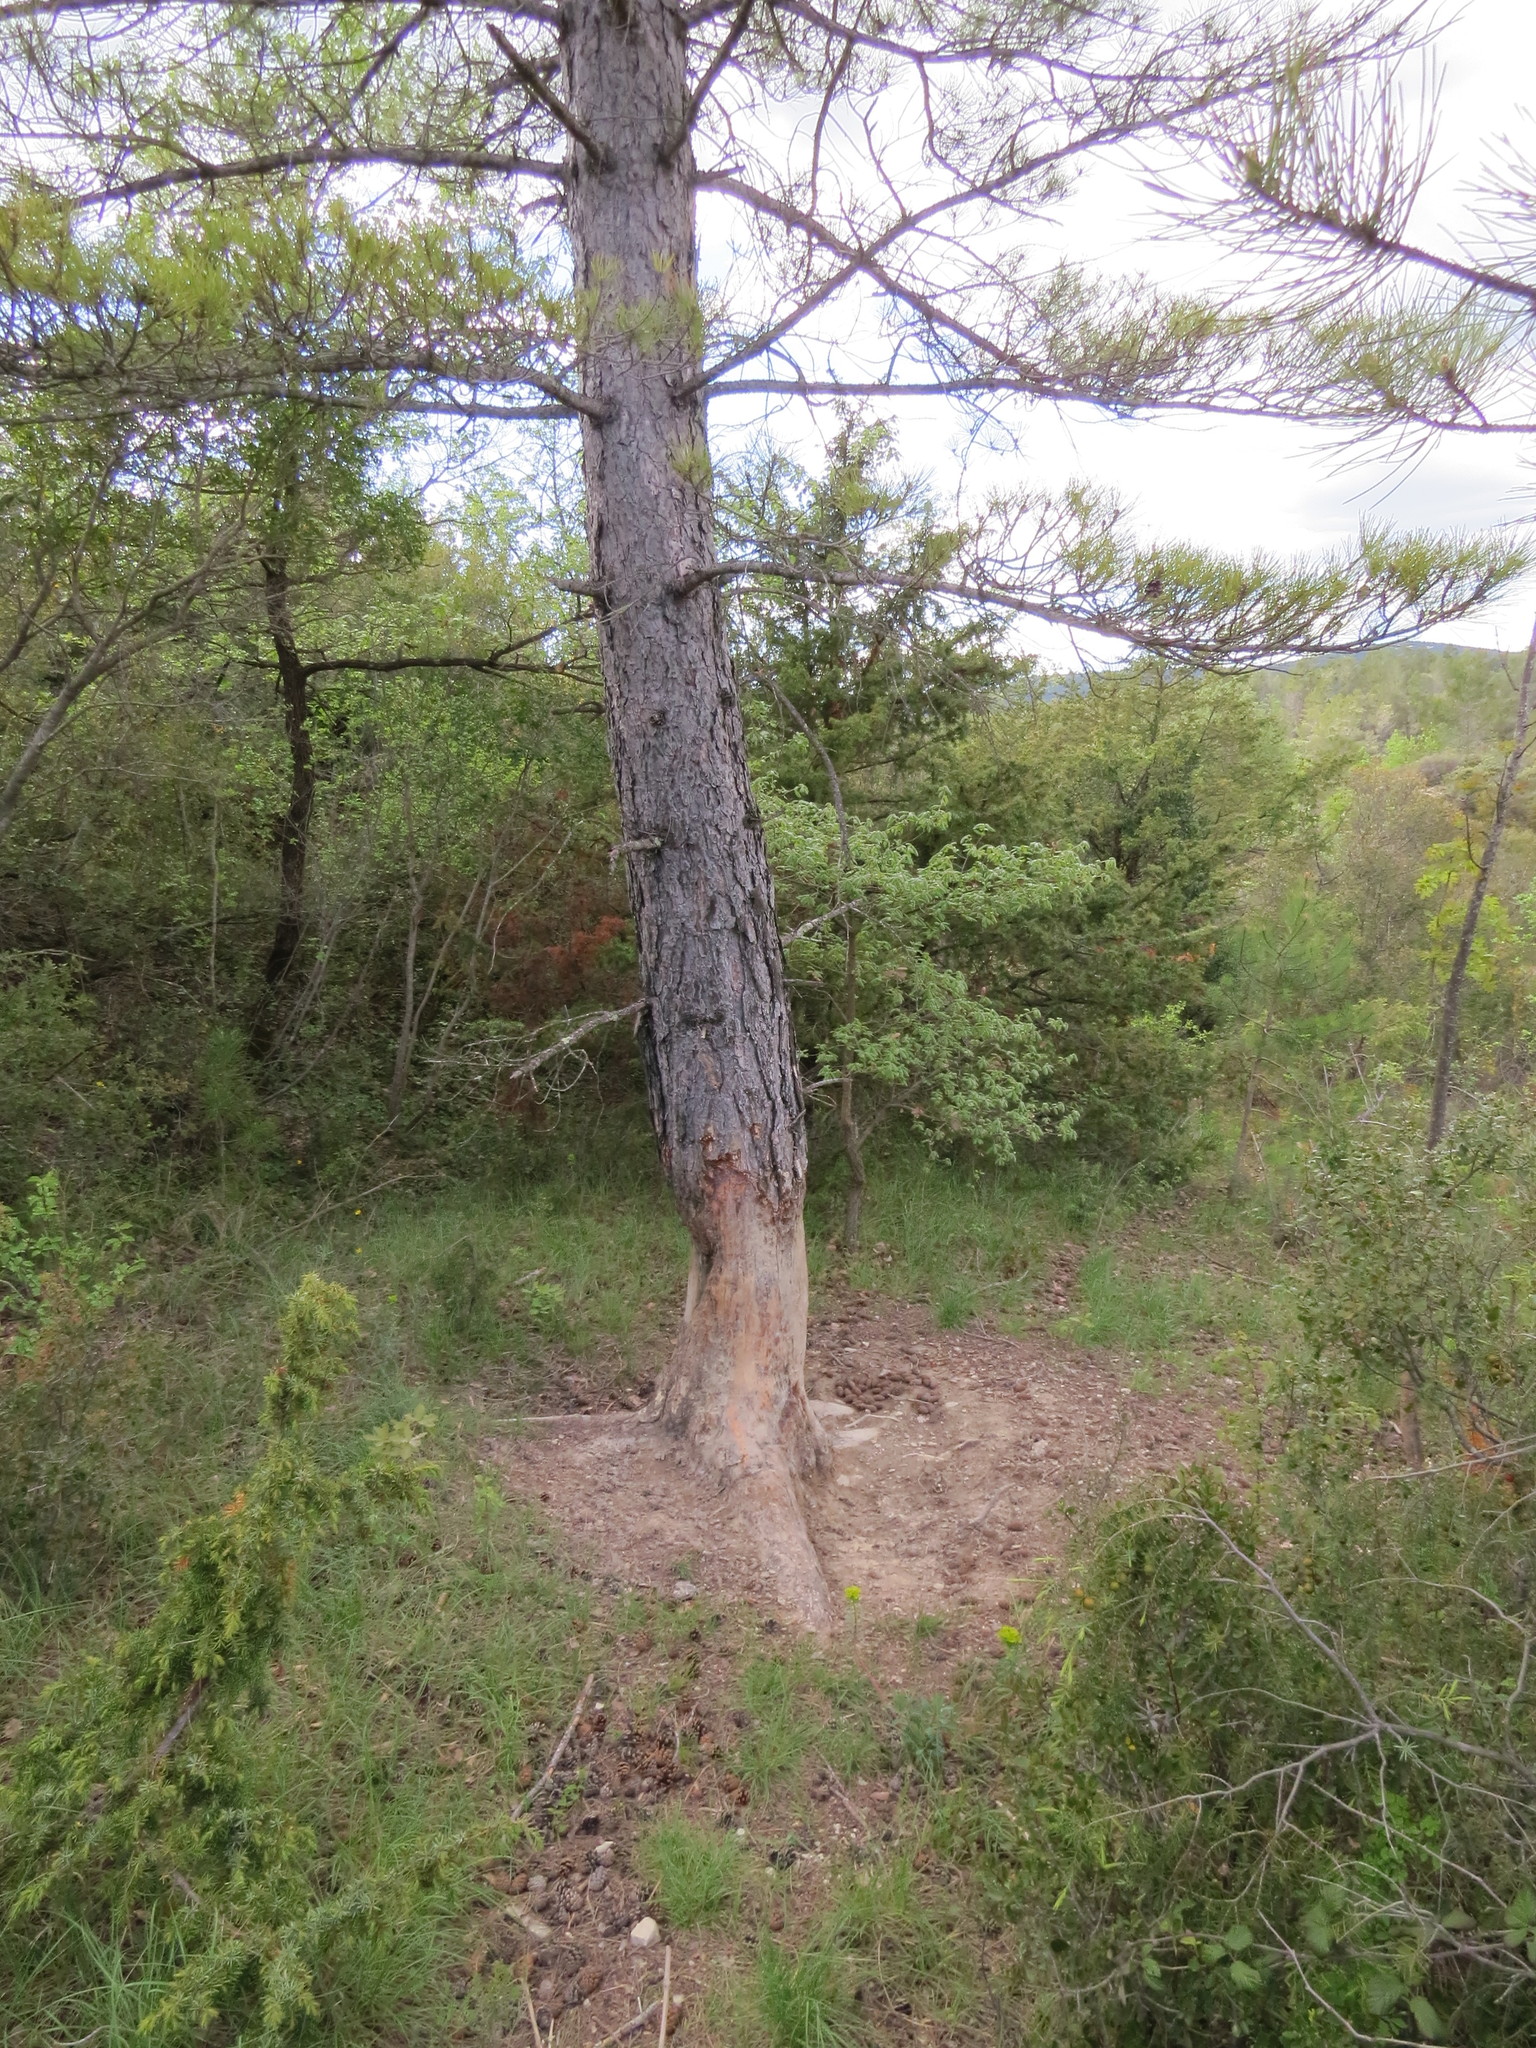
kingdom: Animalia
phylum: Chordata
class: Mammalia
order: Artiodactyla
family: Suidae
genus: Sus
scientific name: Sus scrofa
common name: Wild boar
